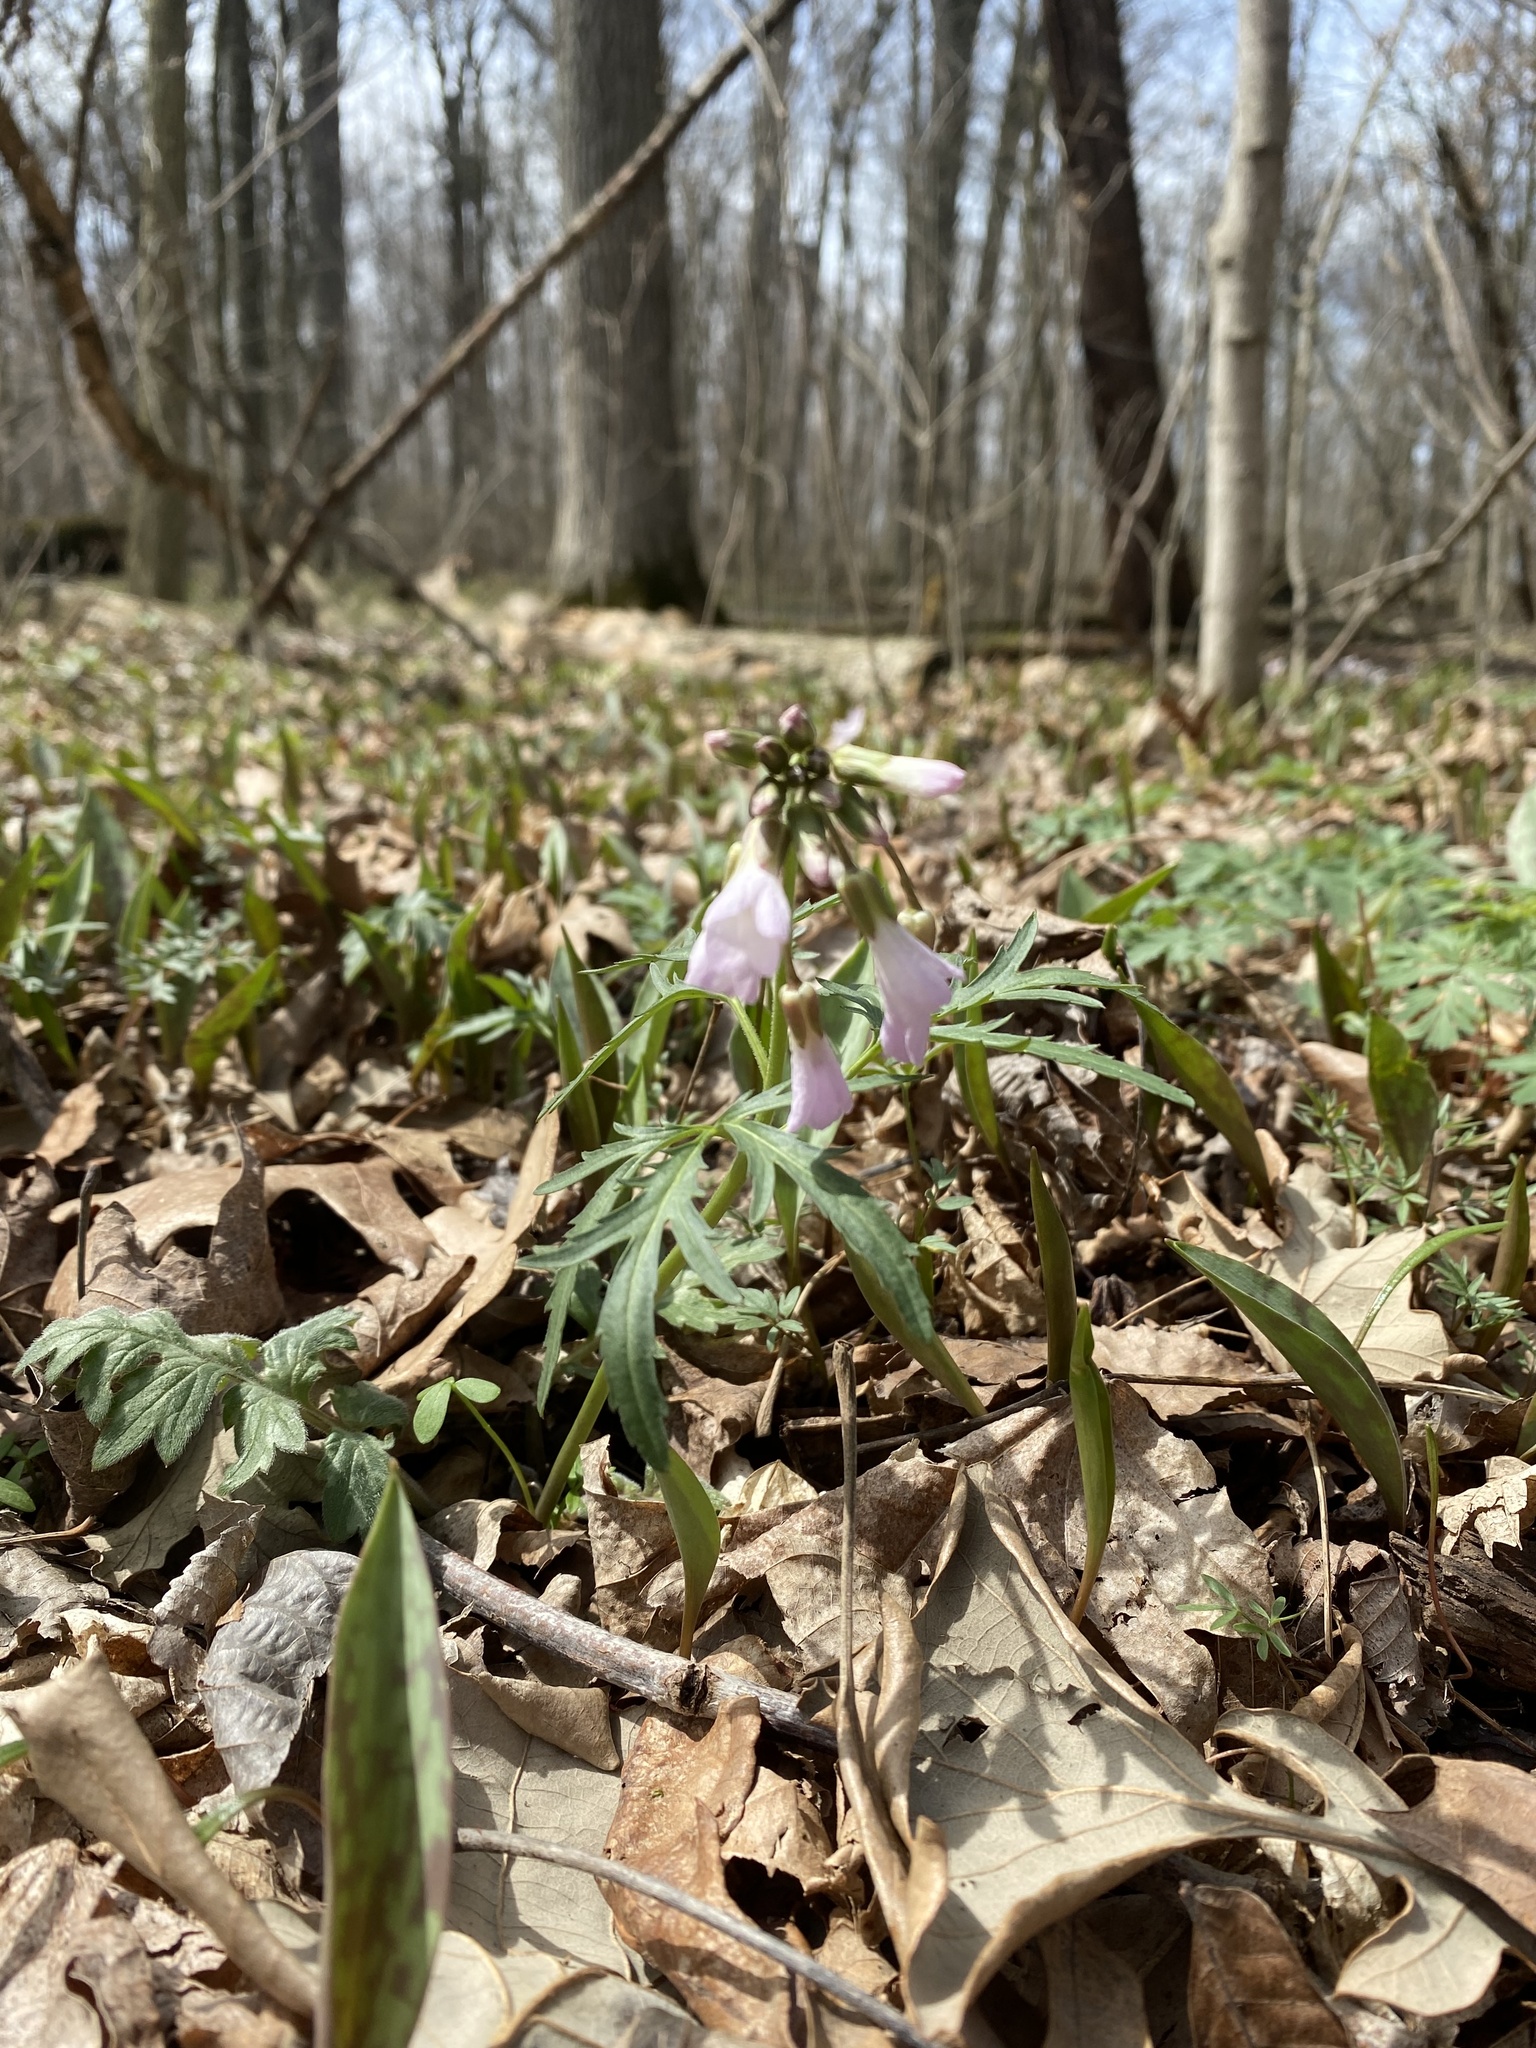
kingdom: Plantae
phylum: Tracheophyta
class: Magnoliopsida
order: Brassicales
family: Brassicaceae
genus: Cardamine
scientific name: Cardamine concatenata
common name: Cut-leaf toothcup
